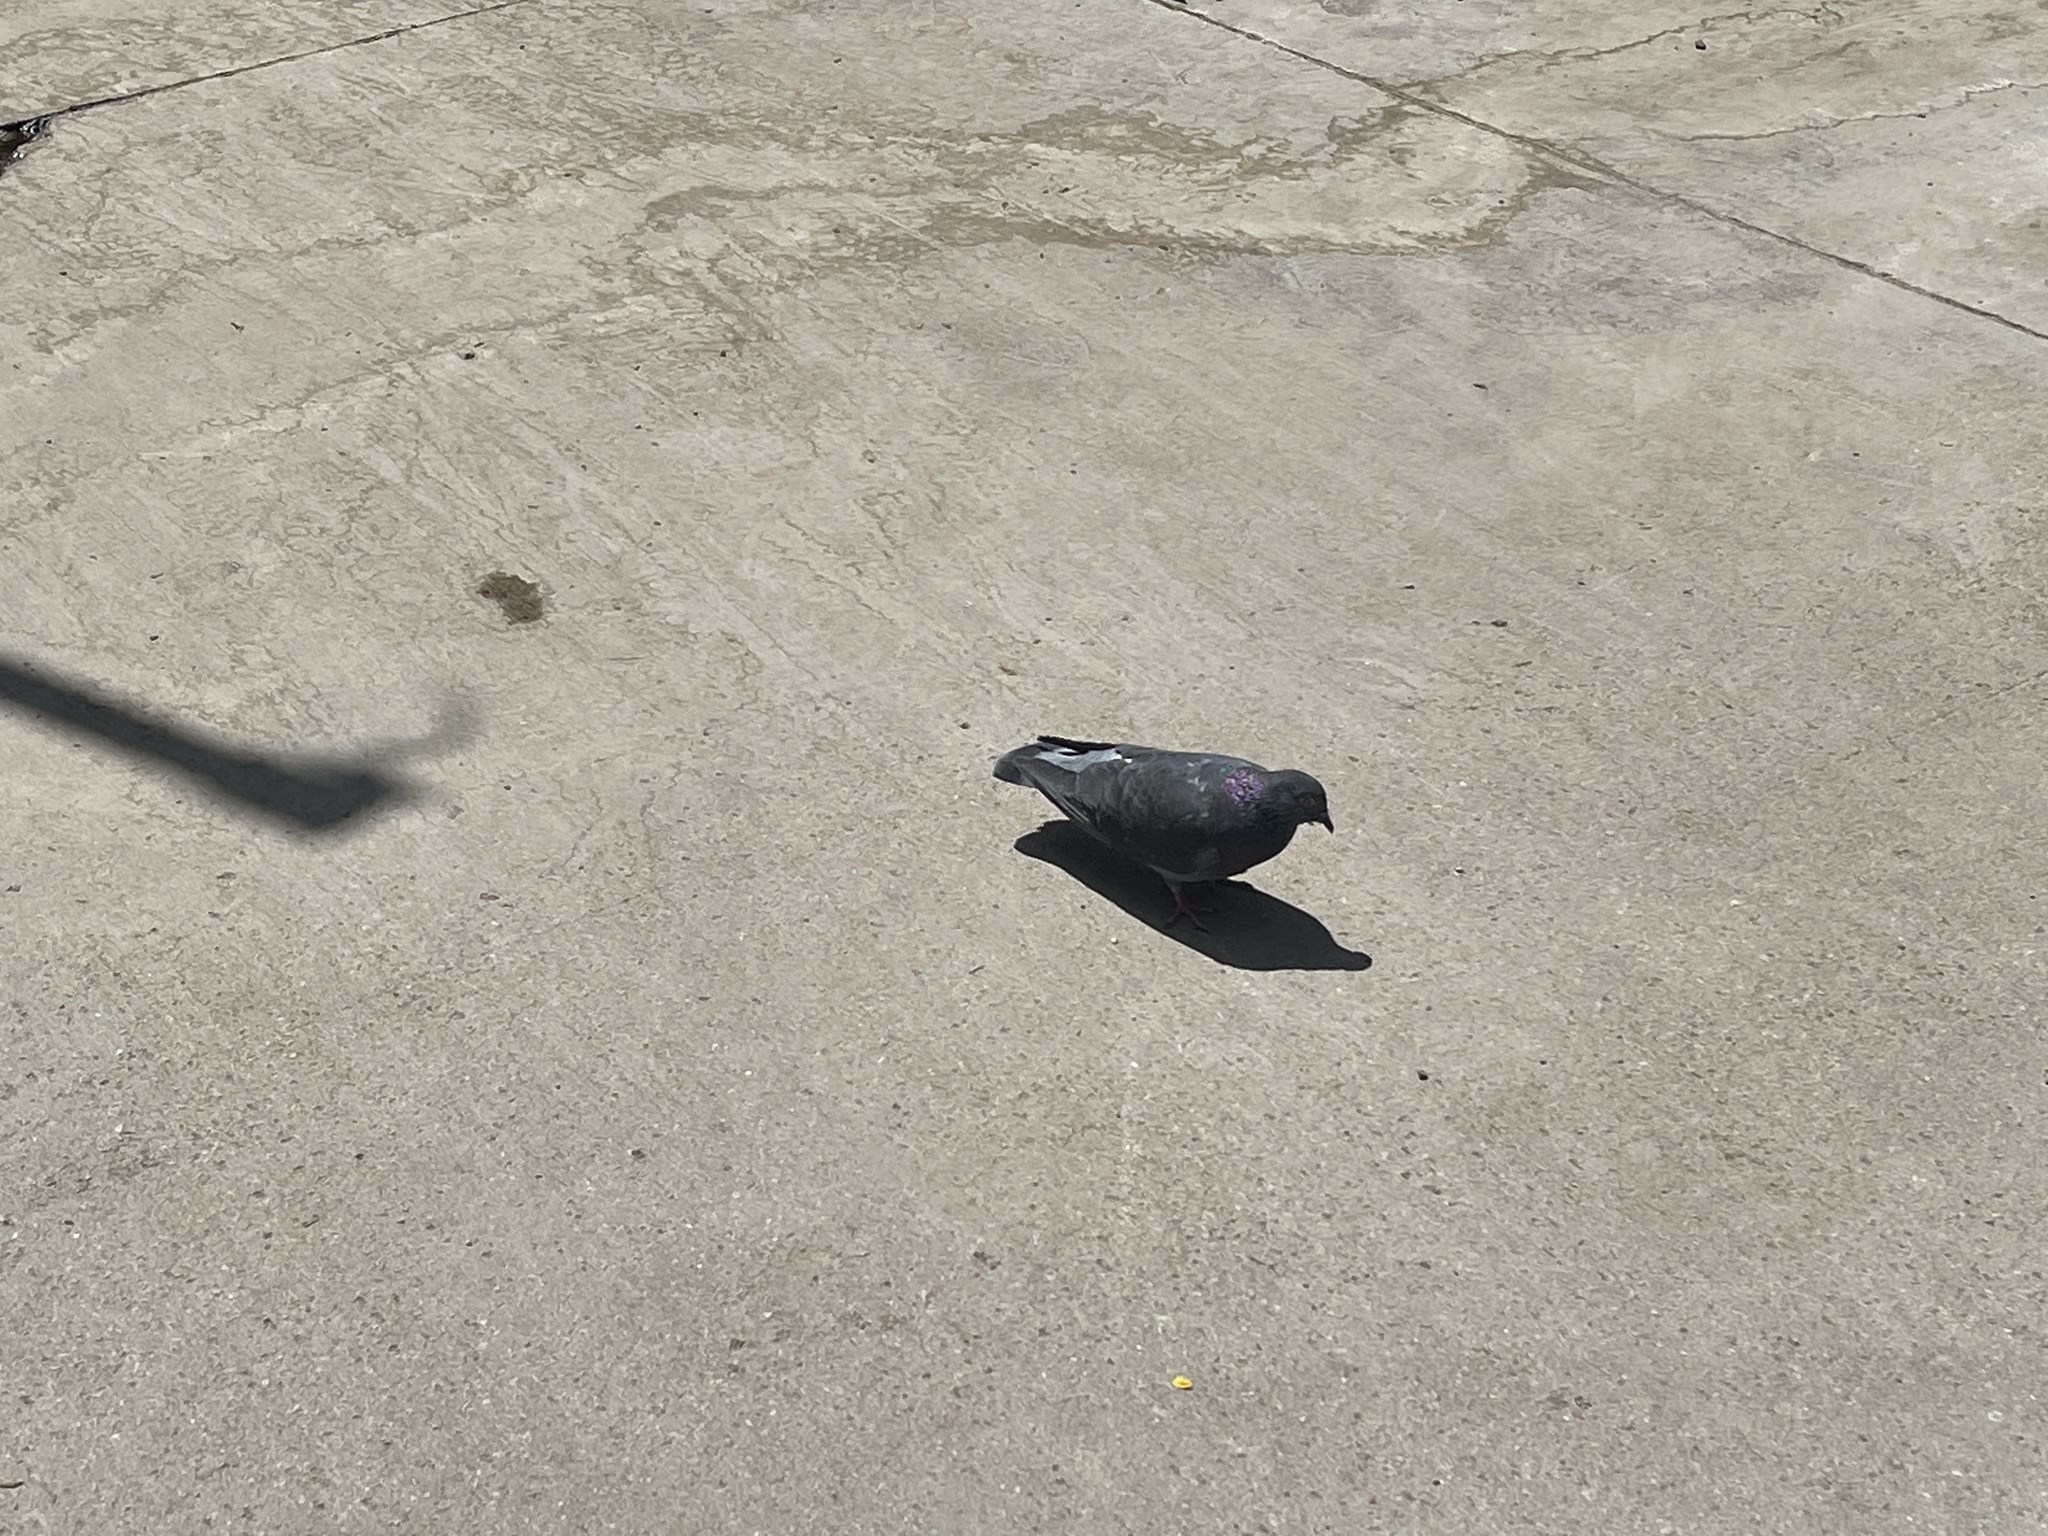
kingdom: Animalia
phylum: Chordata
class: Aves
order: Columbiformes
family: Columbidae
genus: Columba
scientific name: Columba livia
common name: Rock pigeon
